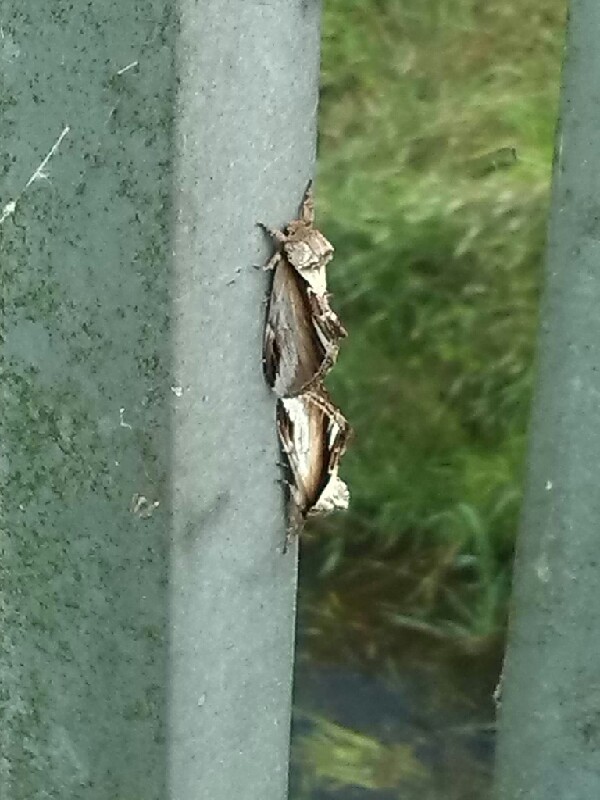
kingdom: Animalia
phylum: Arthropoda
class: Insecta
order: Lepidoptera
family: Notodontidae
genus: Pheosia
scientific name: Pheosia gnoma
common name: Lesser swallow prominent
